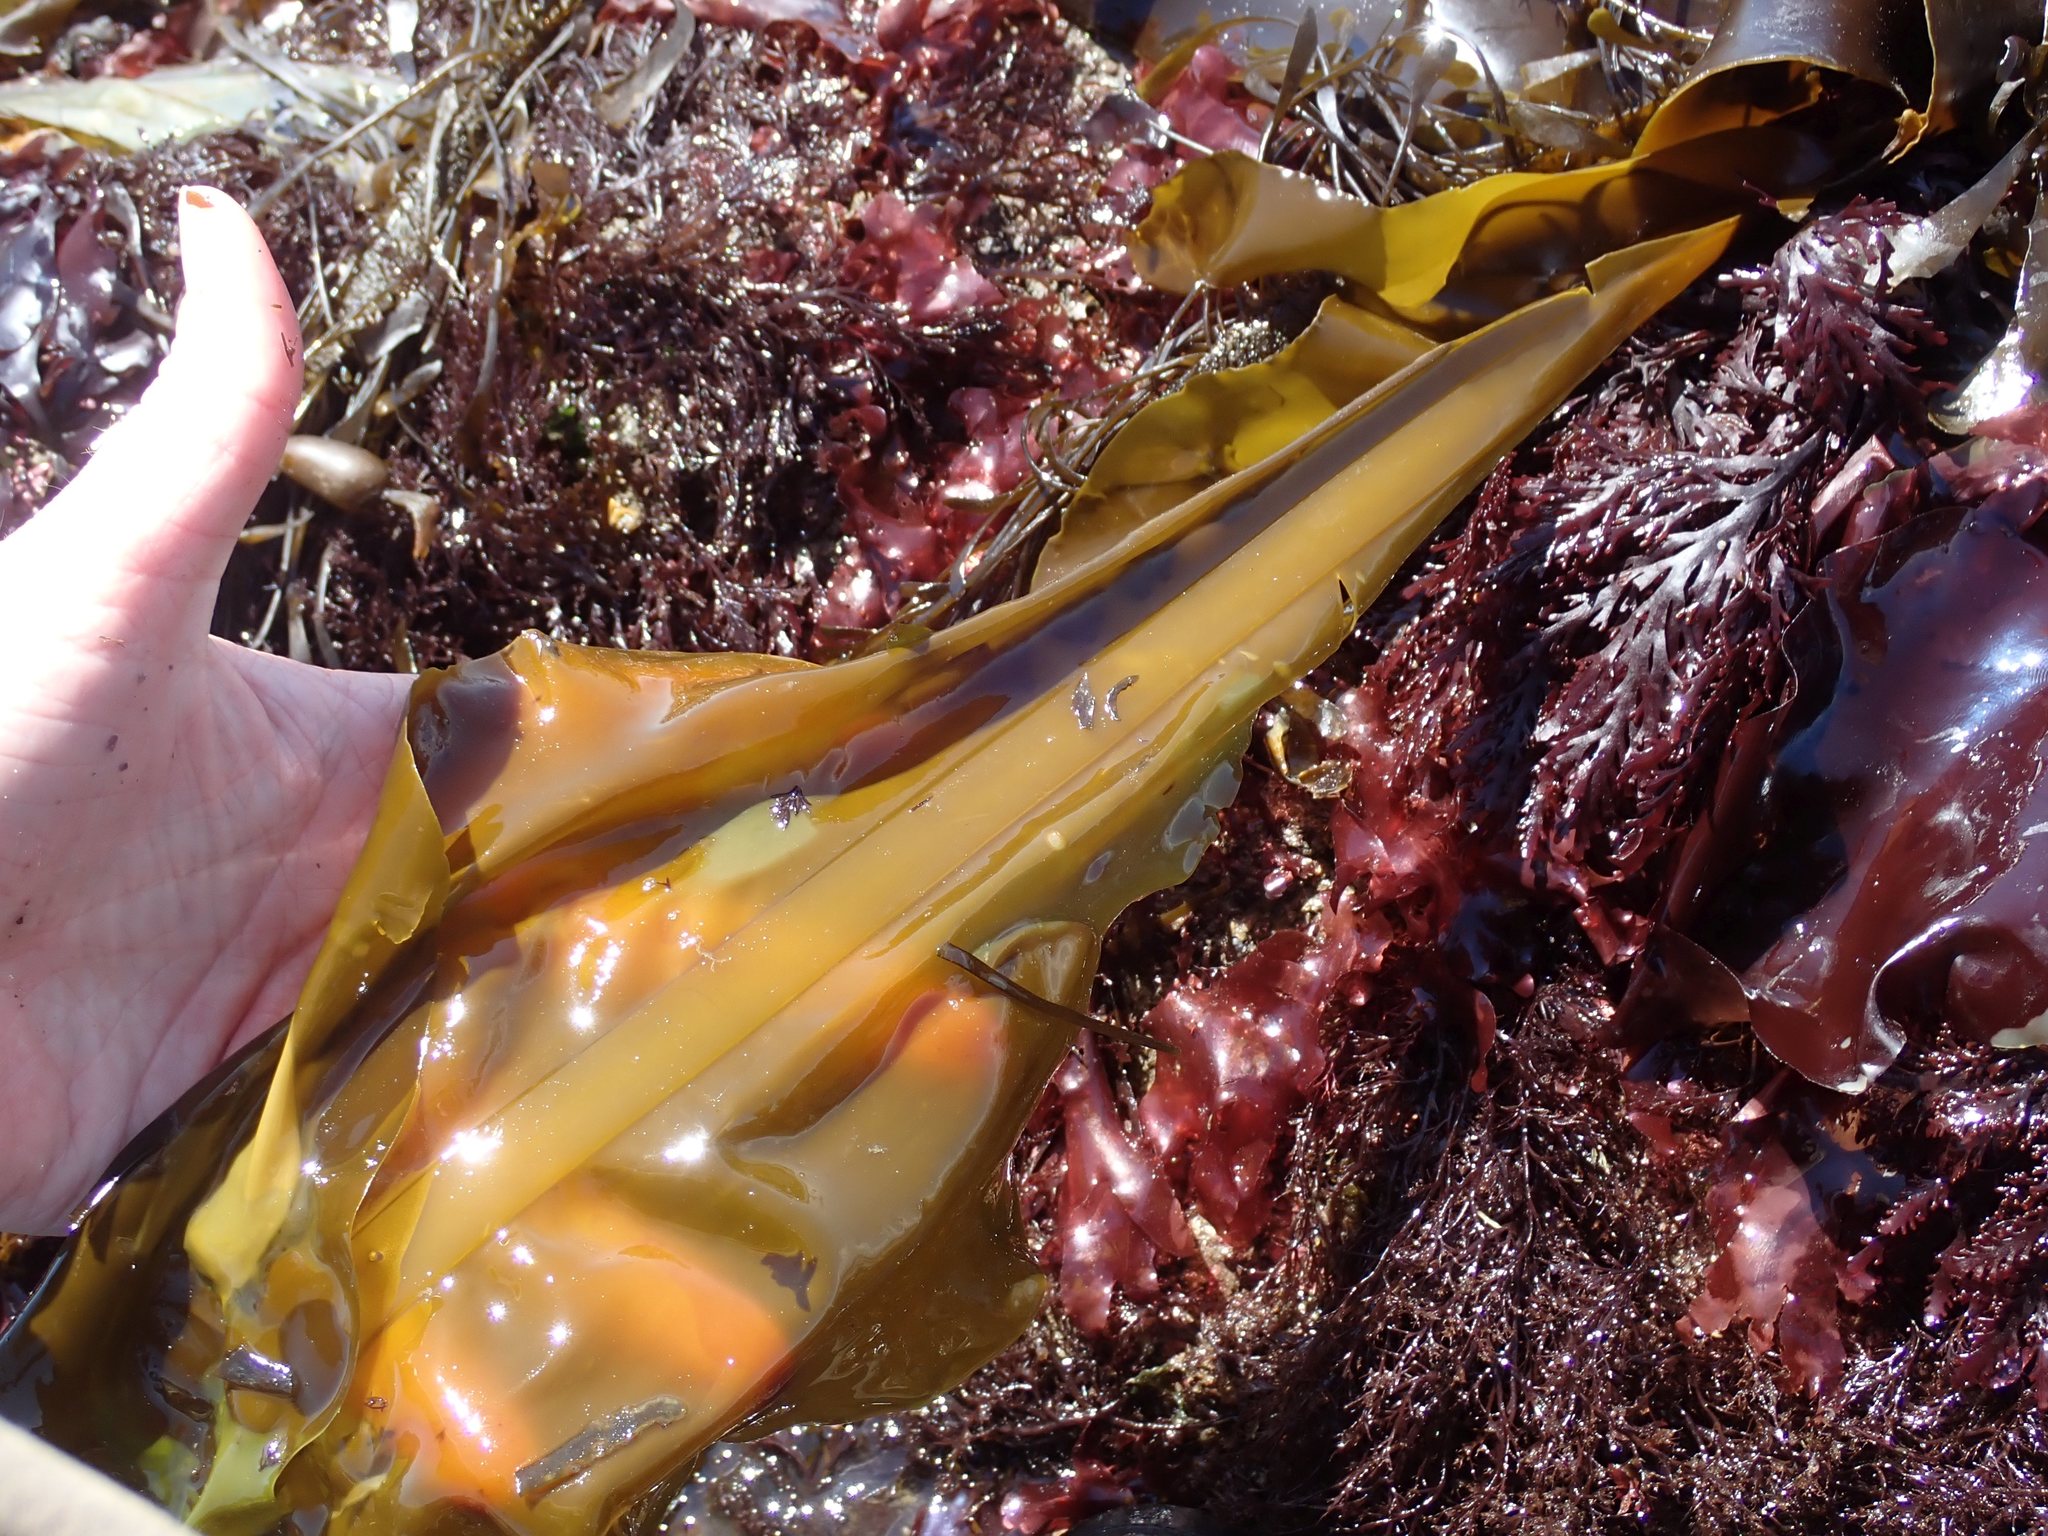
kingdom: Chromista
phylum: Ochrophyta
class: Phaeophyceae
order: Laminariales
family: Alariaceae
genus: Alaria
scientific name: Alaria marginata
